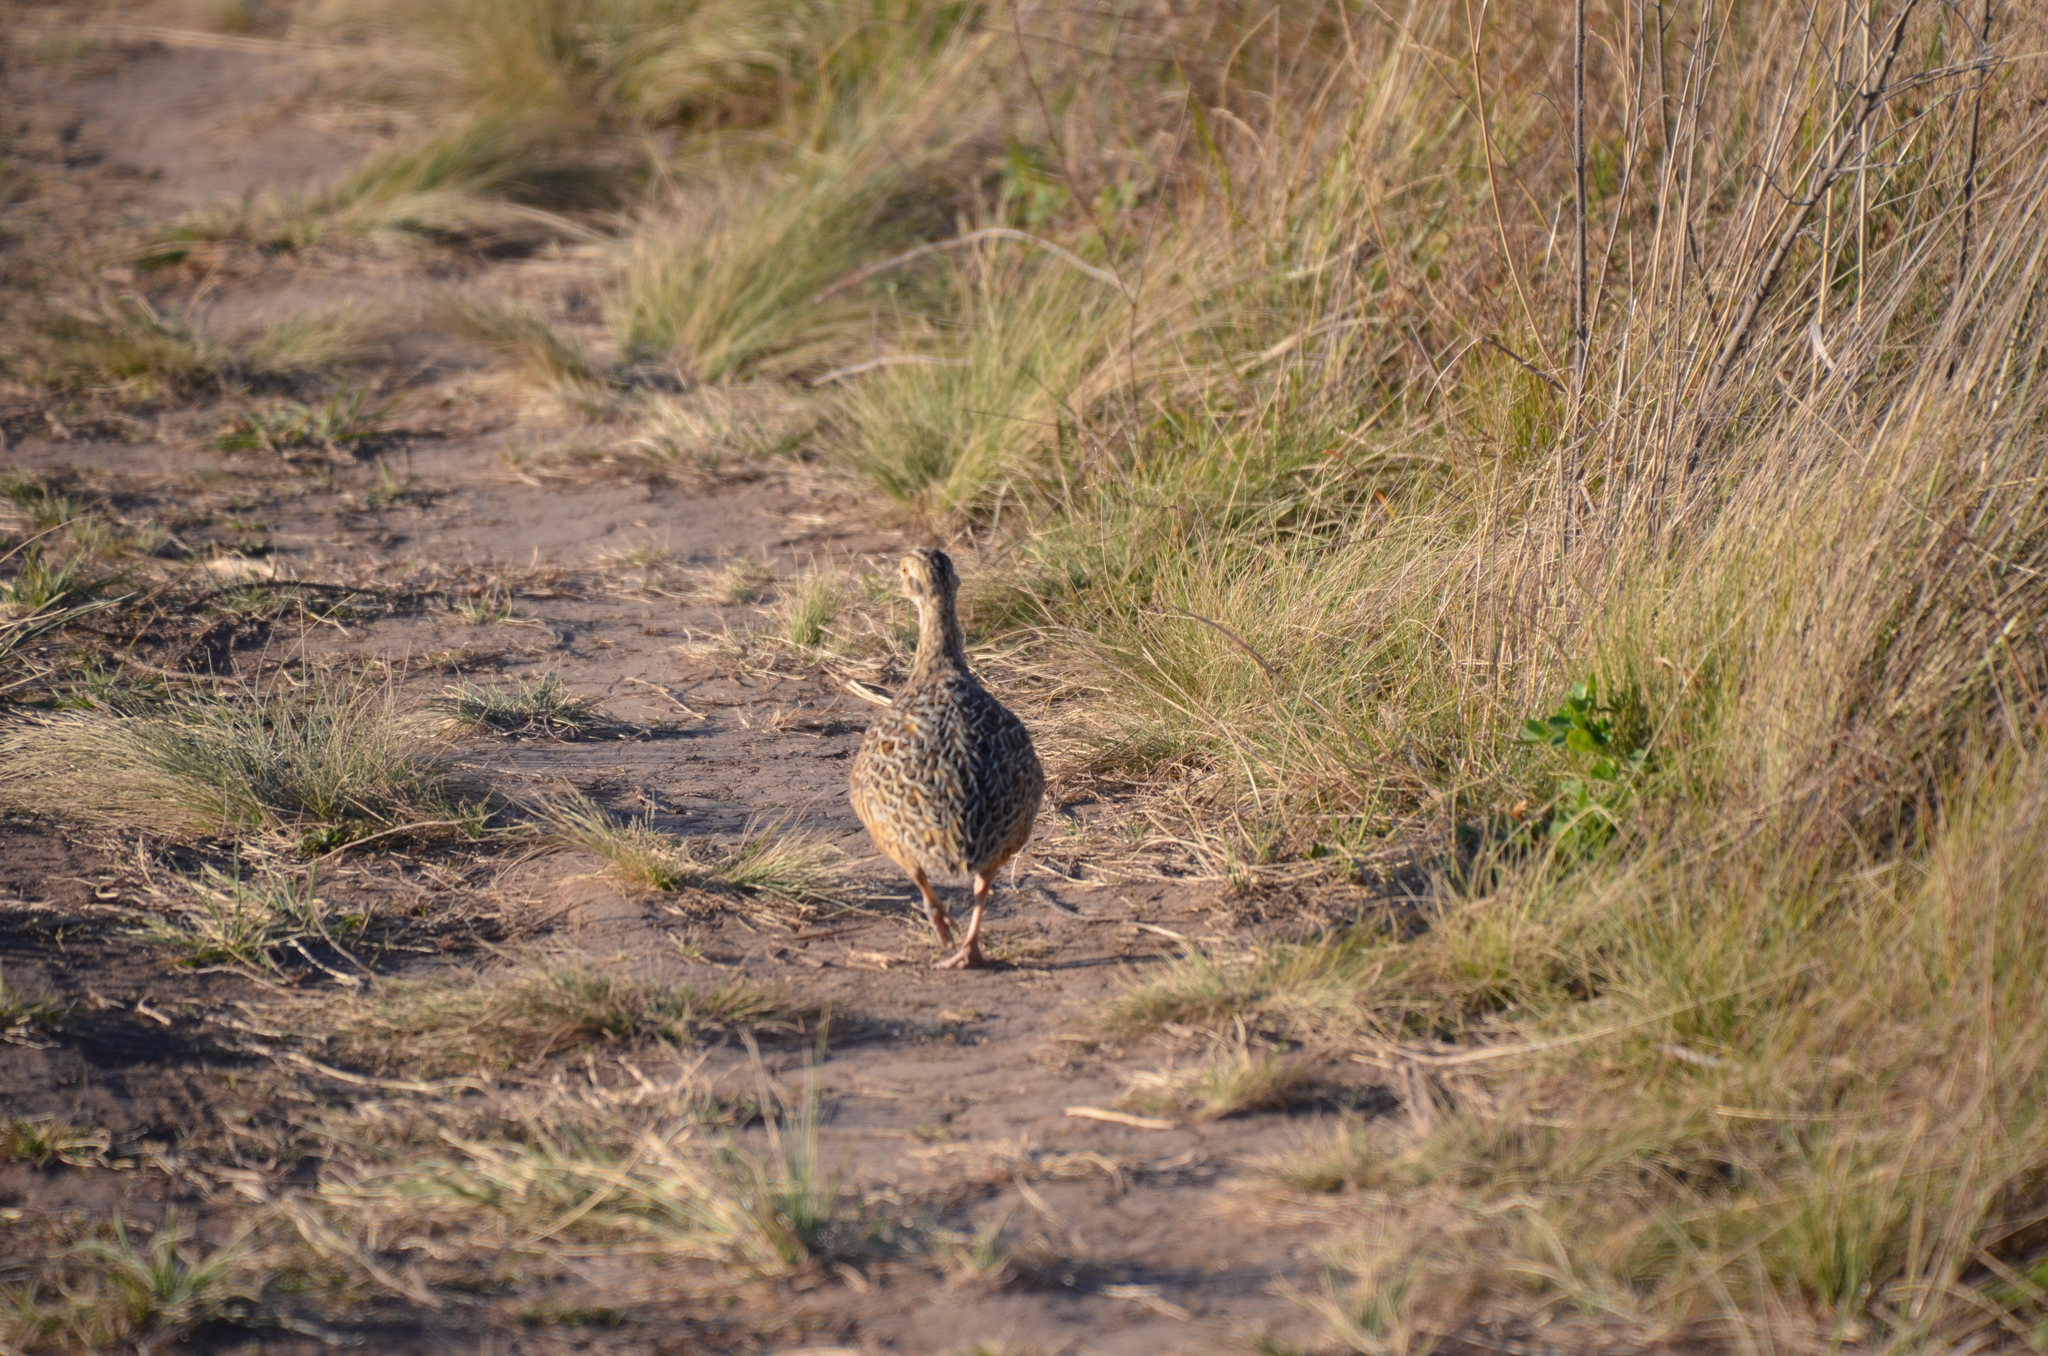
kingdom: Animalia
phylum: Chordata
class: Aves
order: Tinamiformes
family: Tinamidae
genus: Nothura
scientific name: Nothura maculosa
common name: Spotted nothura
